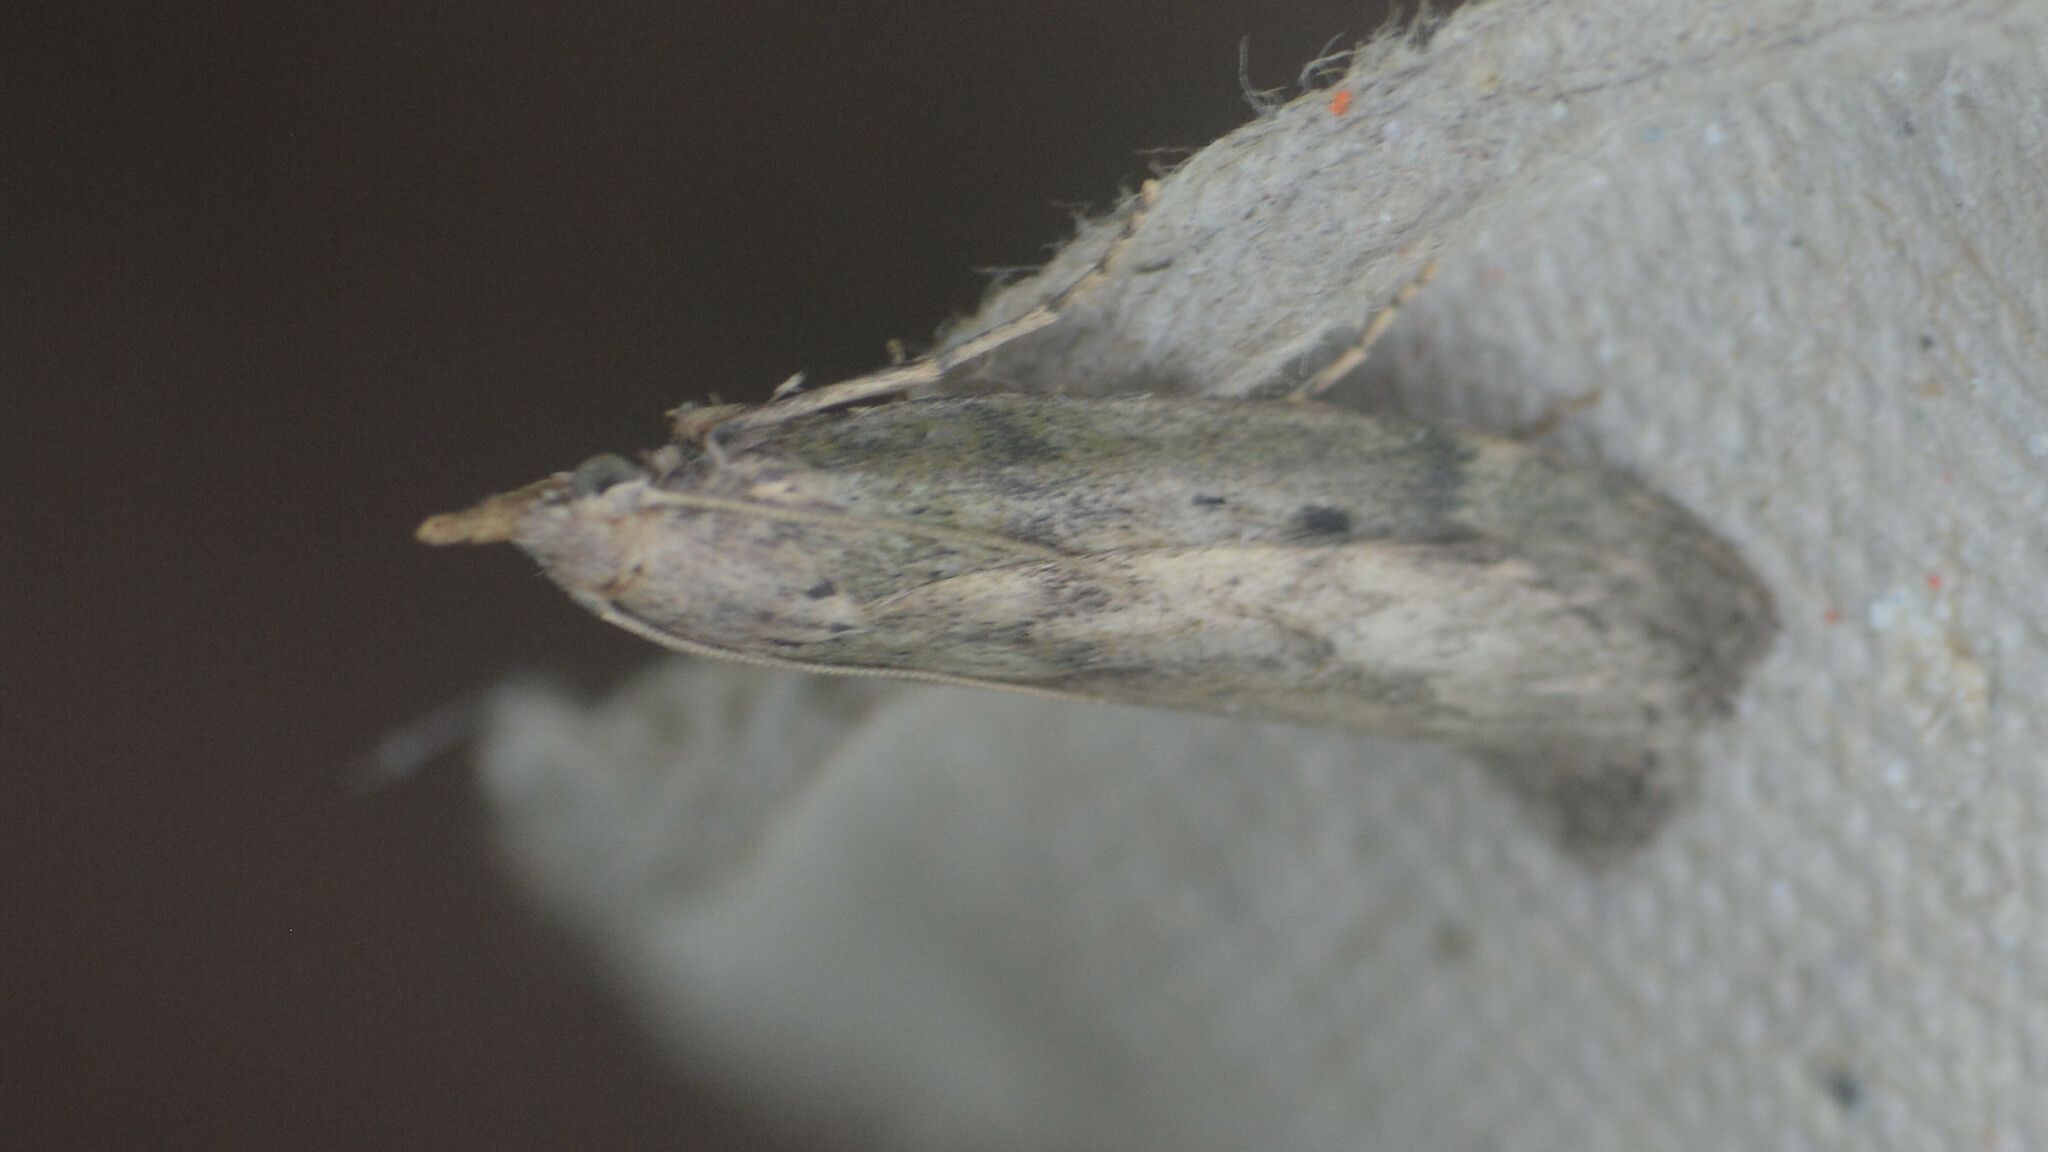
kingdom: Animalia
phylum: Arthropoda
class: Insecta
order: Lepidoptera
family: Pyralidae
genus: Aphomia
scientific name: Aphomia sociella
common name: Bee moth
